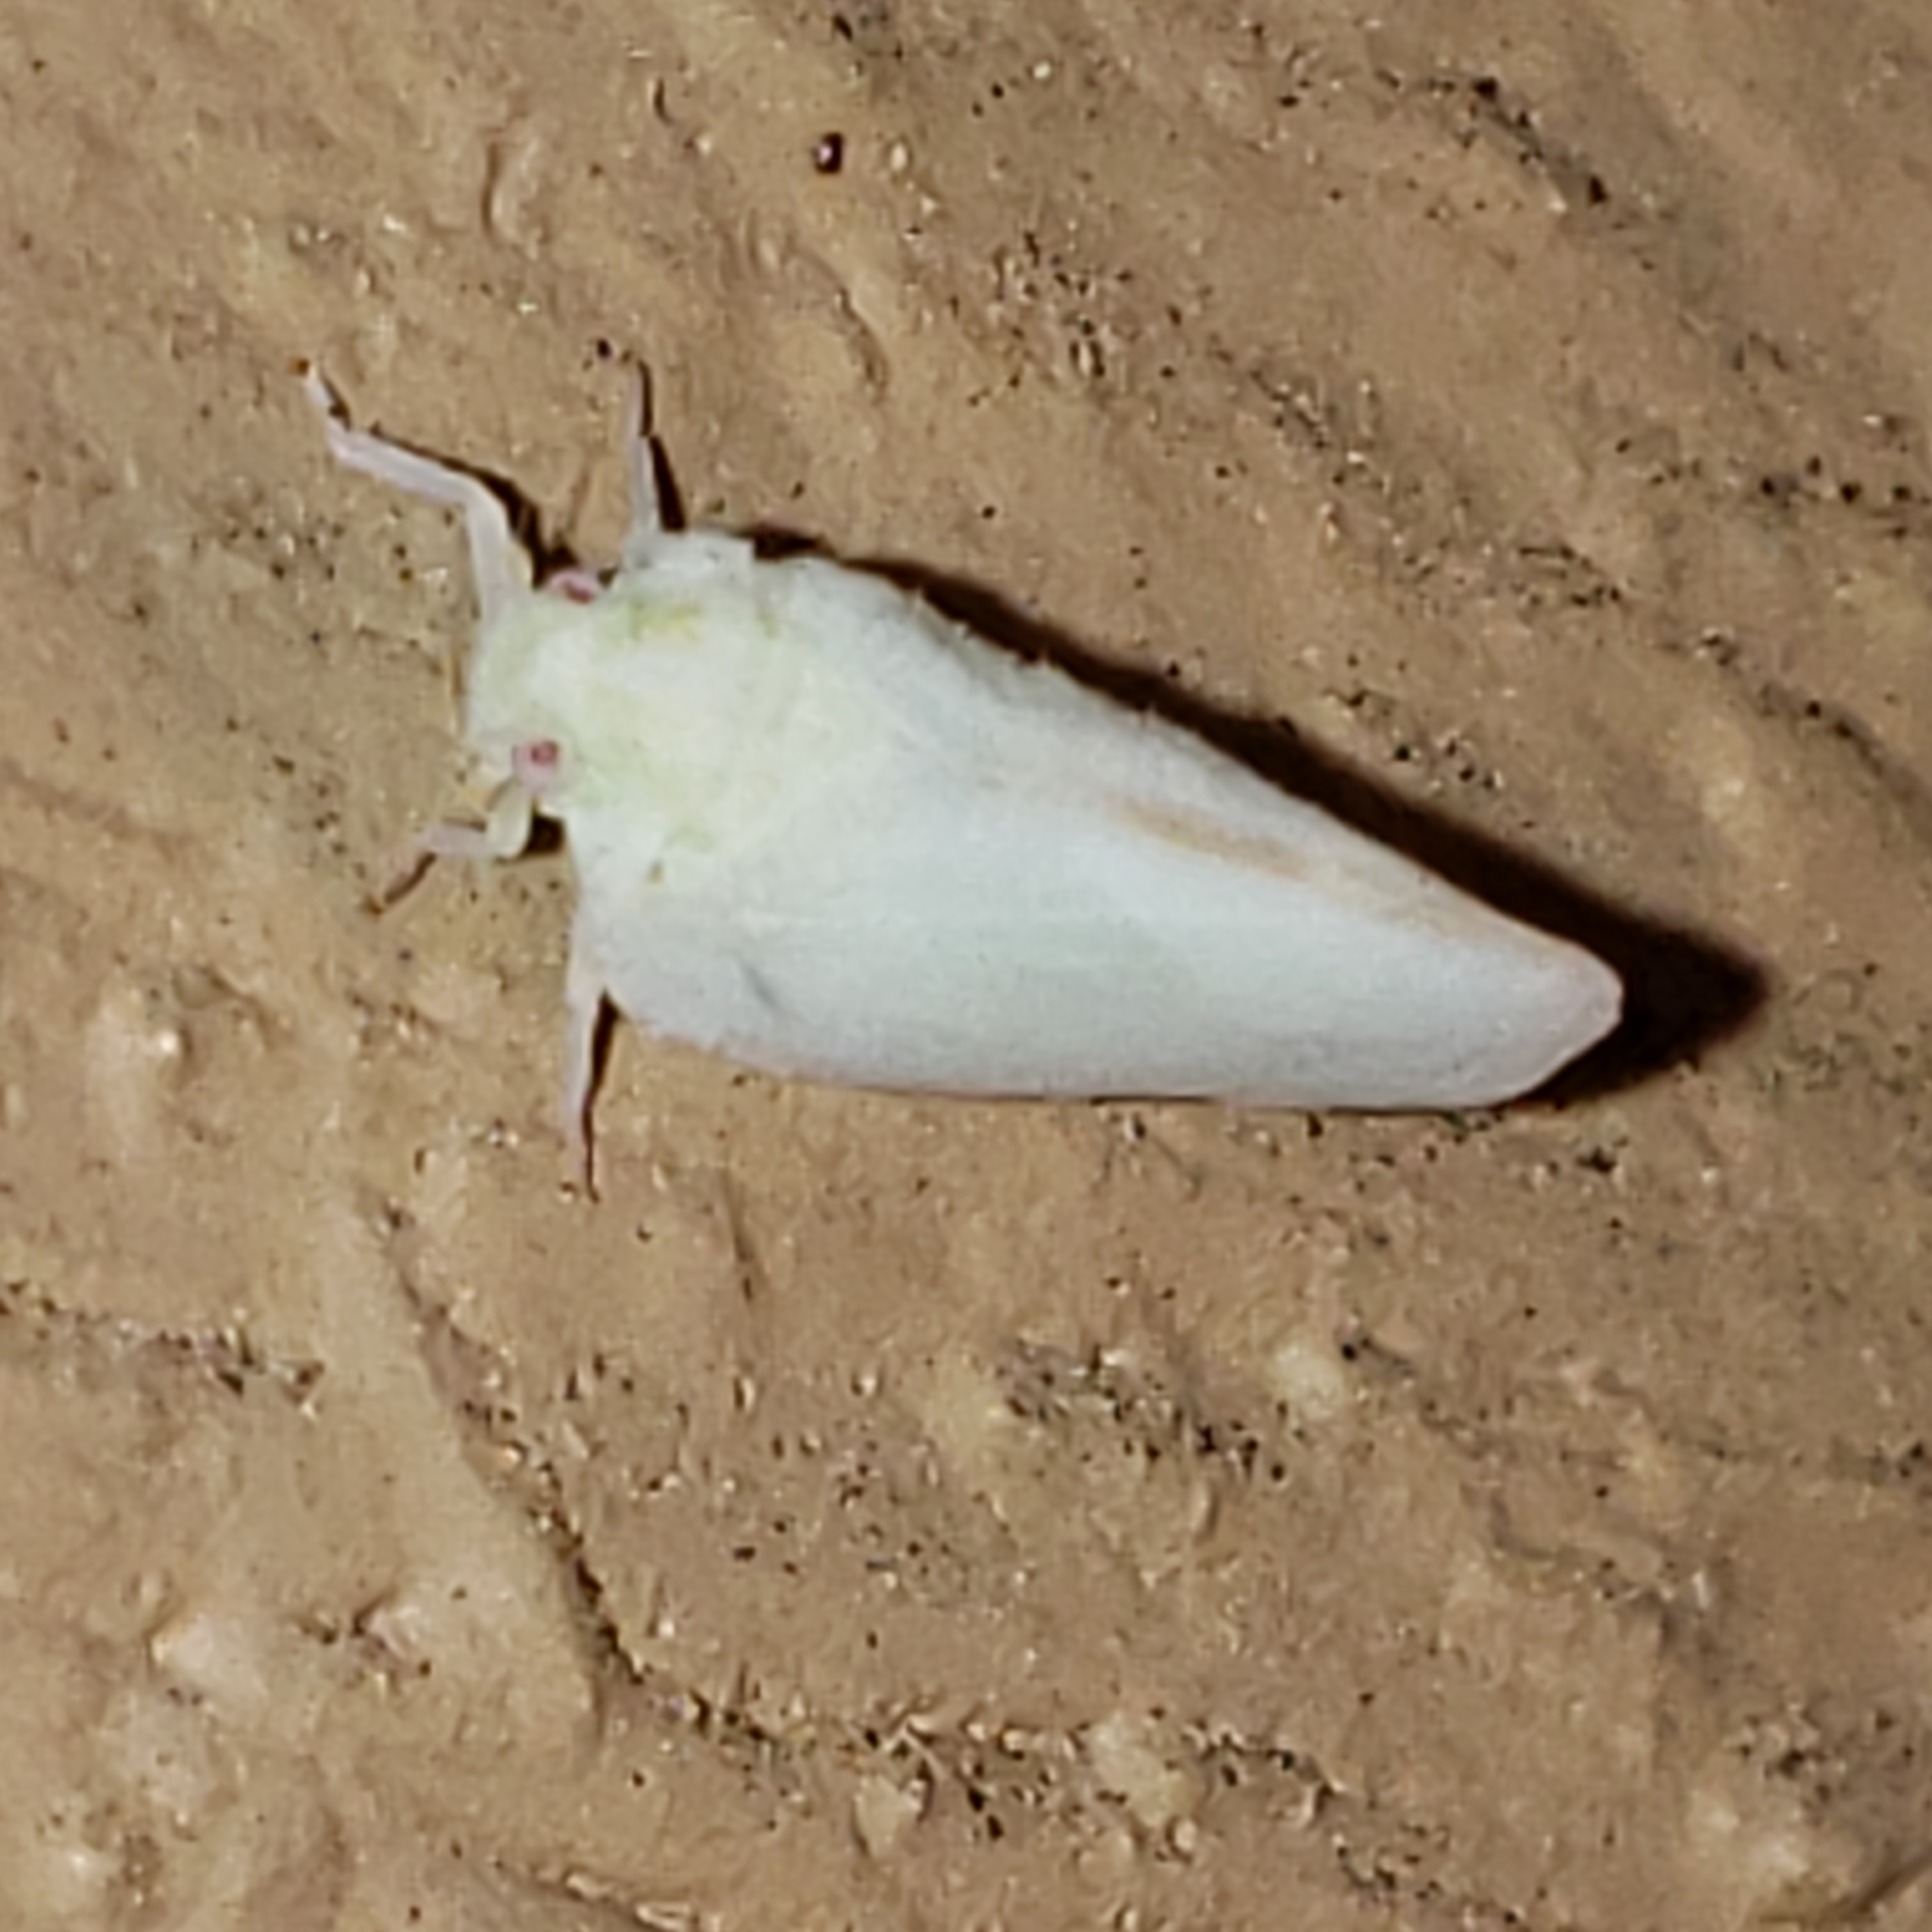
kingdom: Animalia
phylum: Arthropoda
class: Insecta
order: Hemiptera
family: Flatidae
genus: Ormenoides
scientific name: Ormenoides venusta
